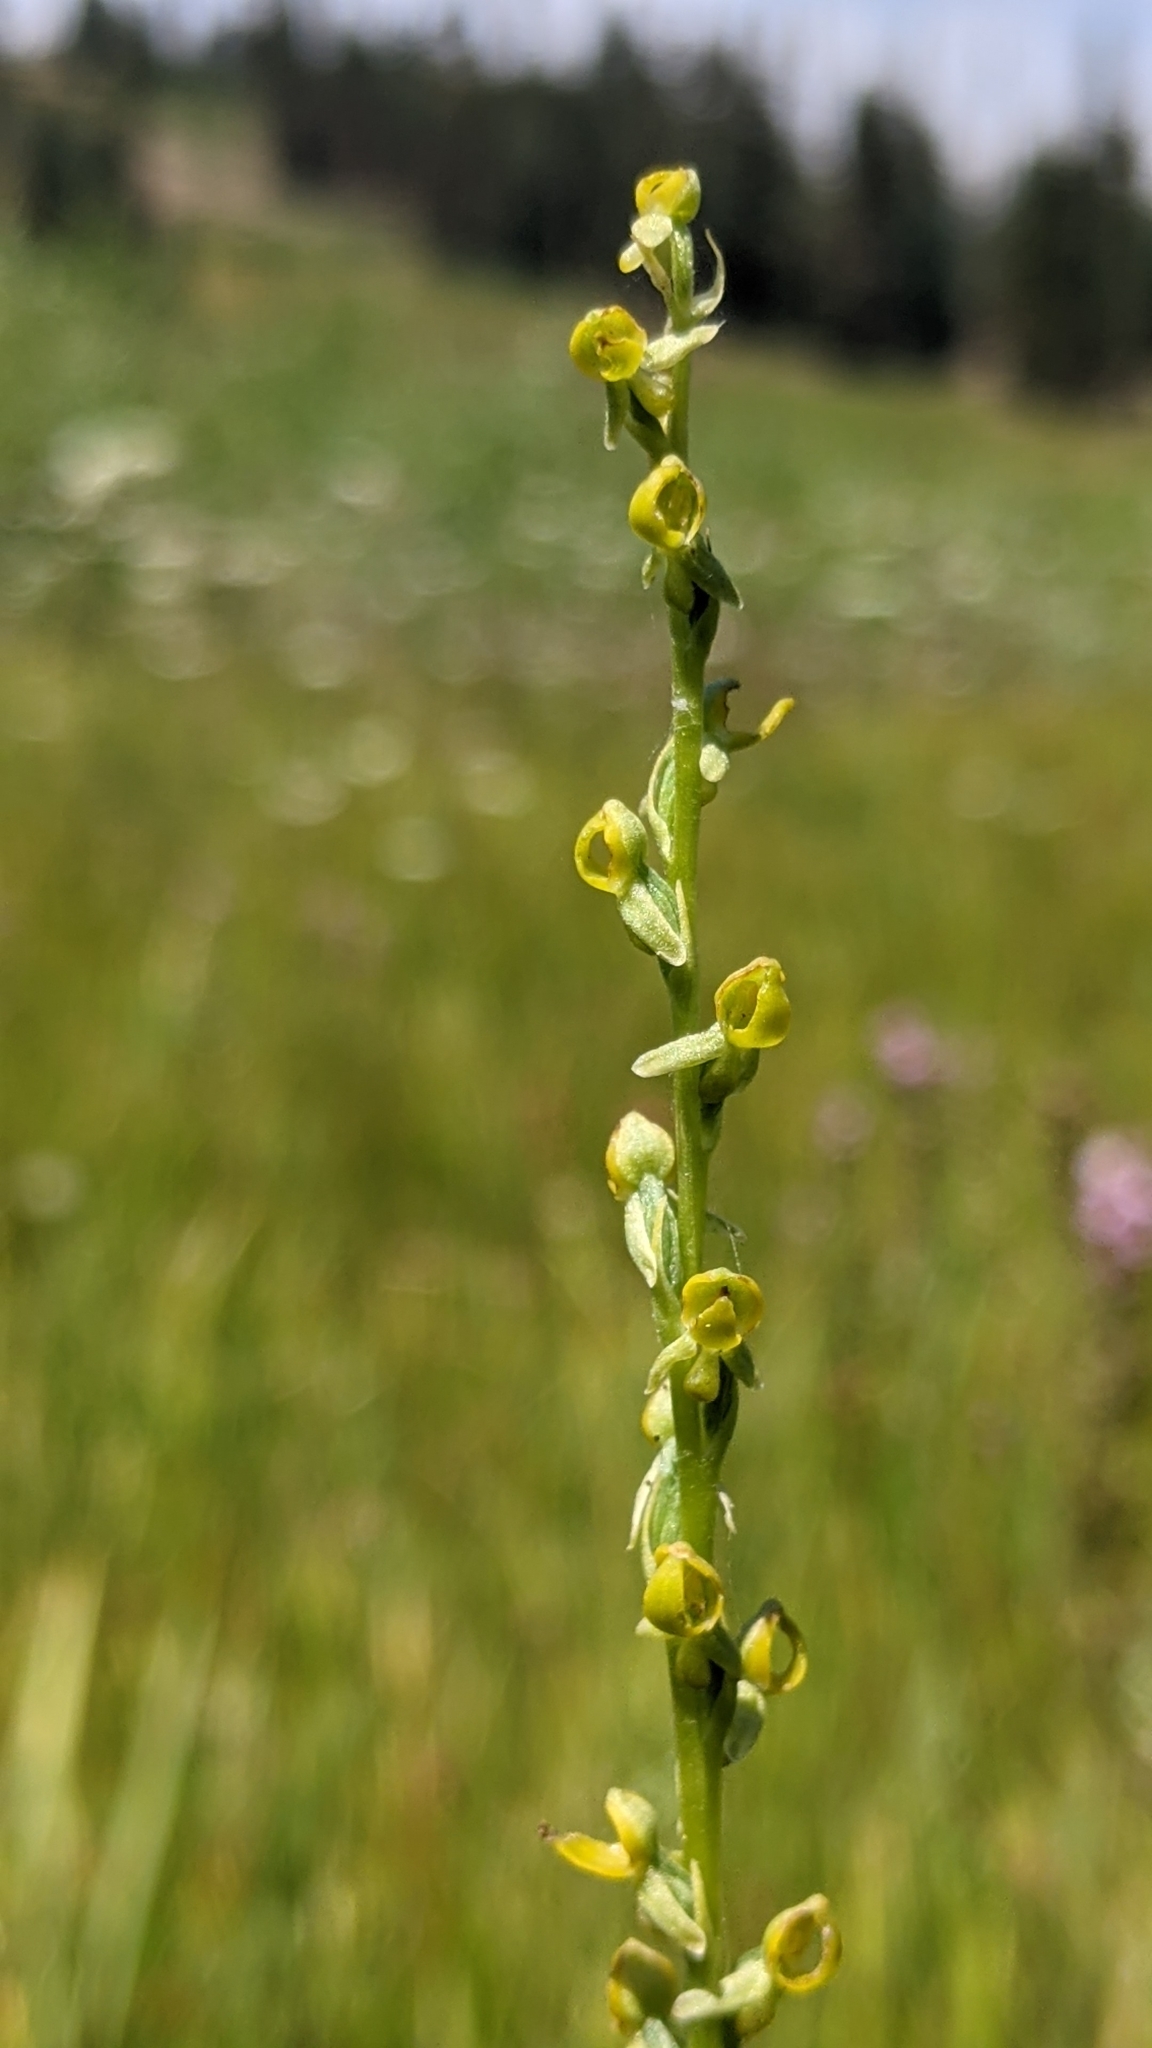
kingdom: Plantae
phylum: Tracheophyta
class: Liliopsida
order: Asparagales
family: Orchidaceae
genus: Platanthera
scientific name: Platanthera yosemitensis
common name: Yosemite bog orchid
